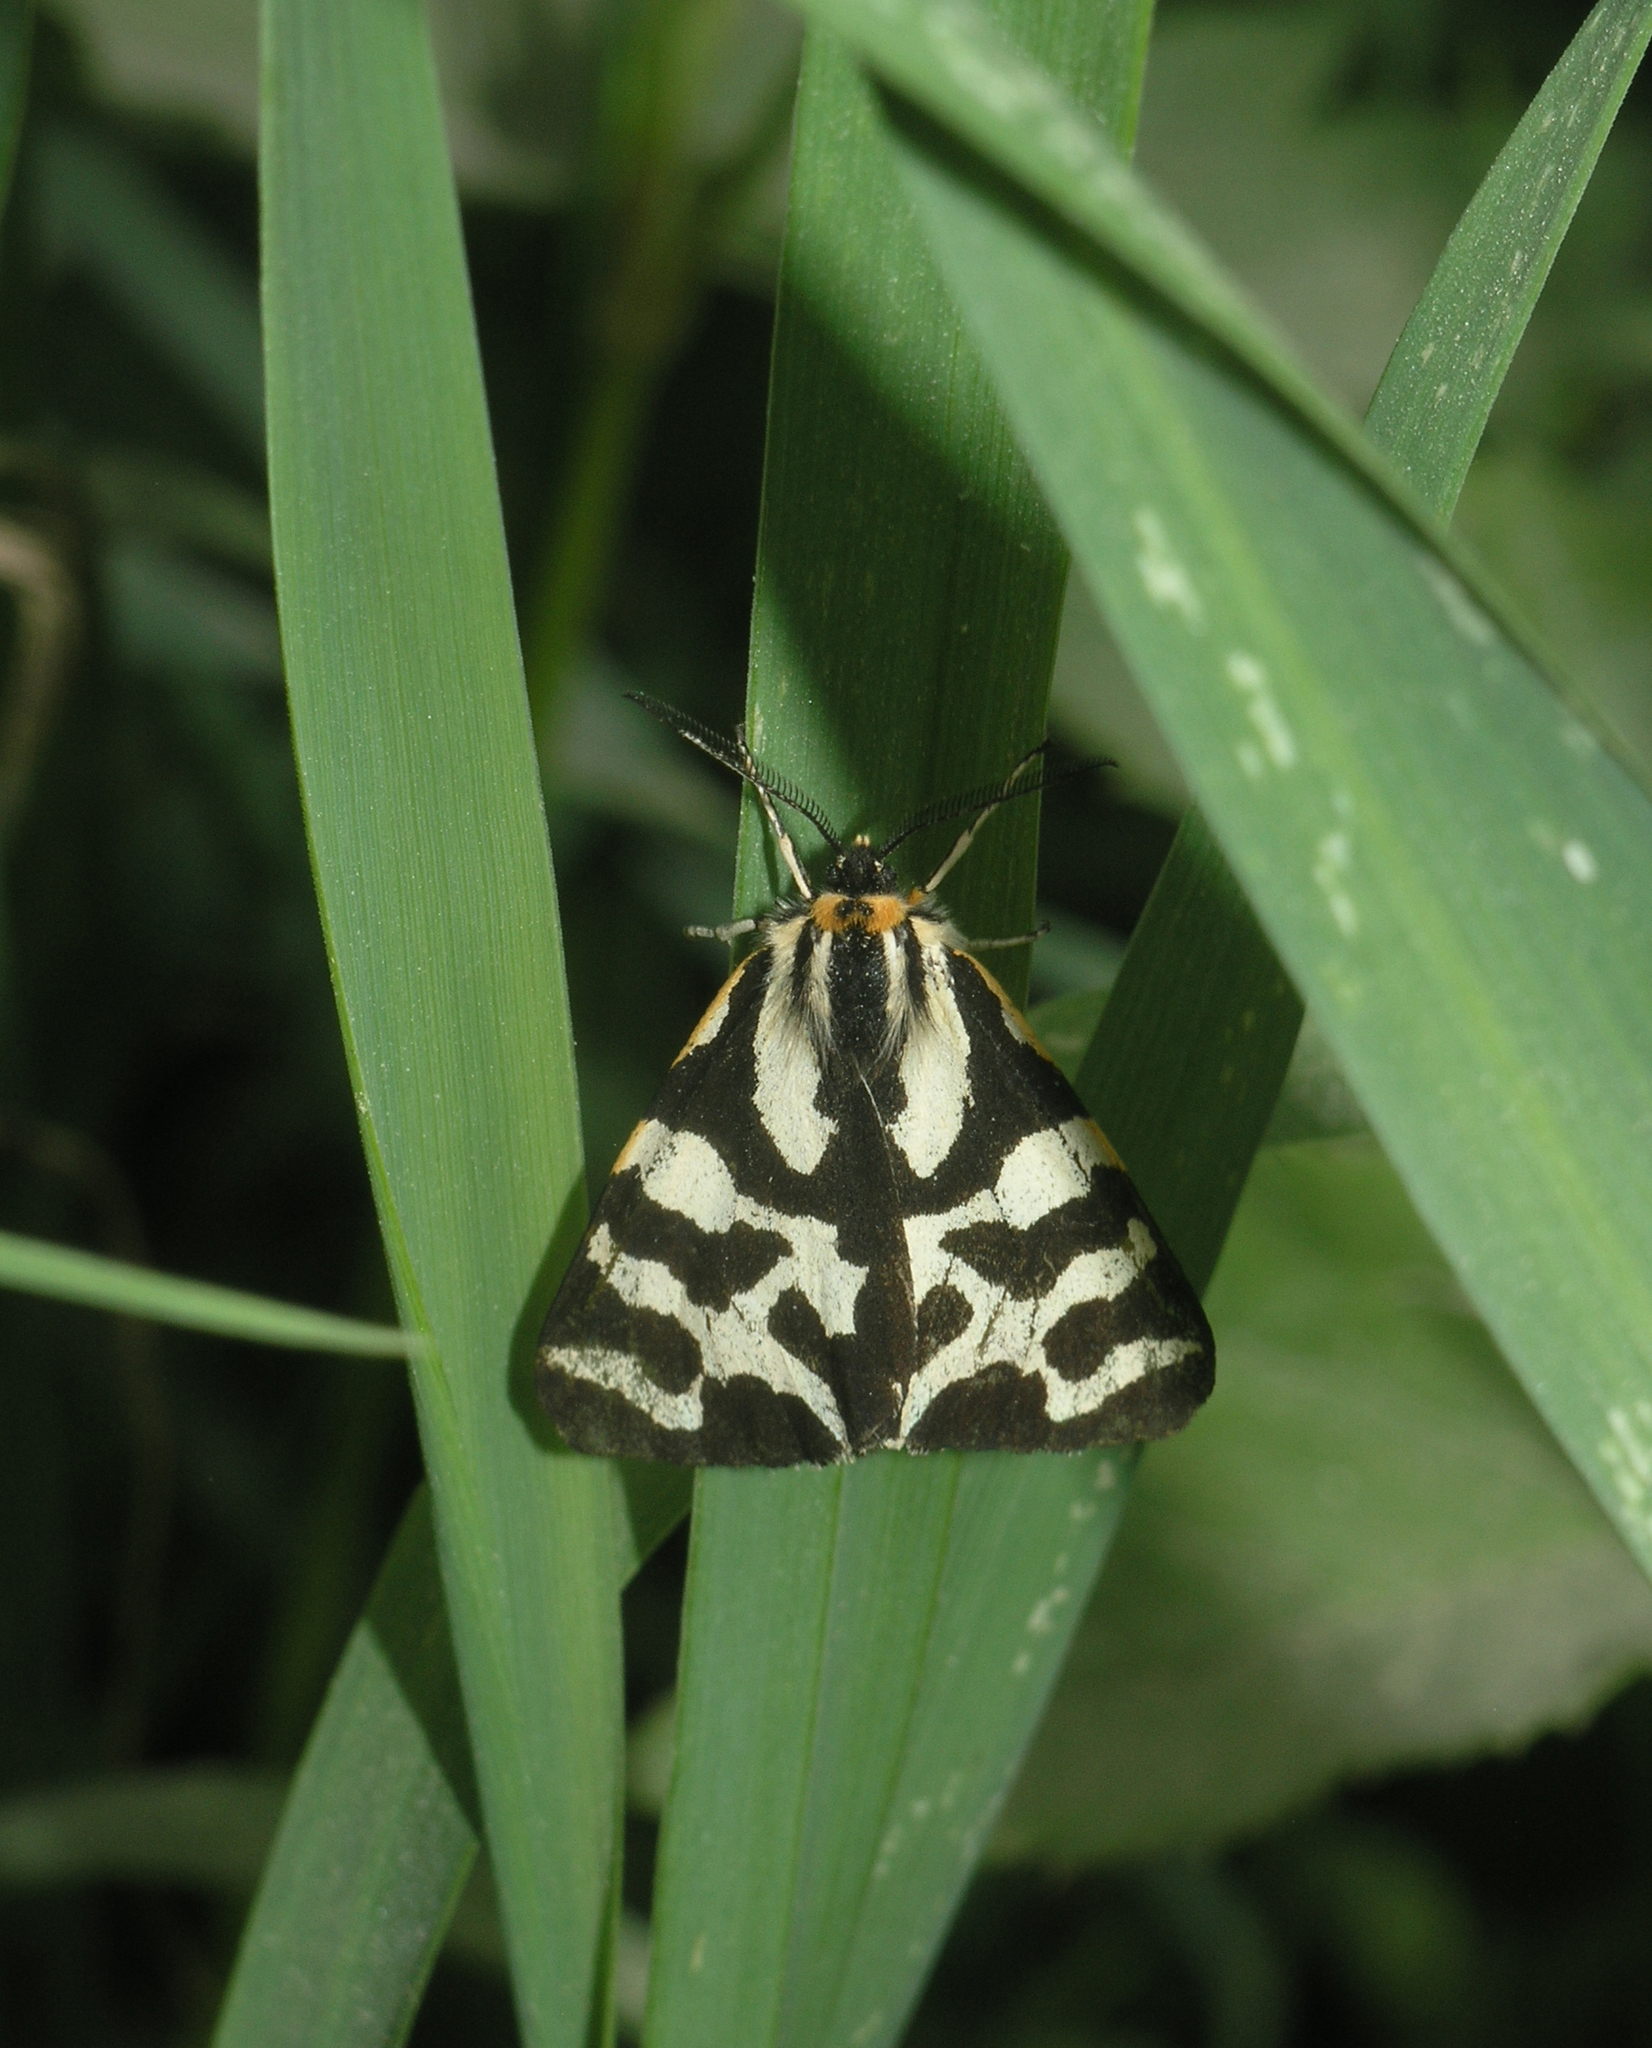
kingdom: Animalia
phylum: Arthropoda
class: Insecta
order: Lepidoptera
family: Erebidae
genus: Parasemia
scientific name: Parasemia plantaginis
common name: Wood tiger
